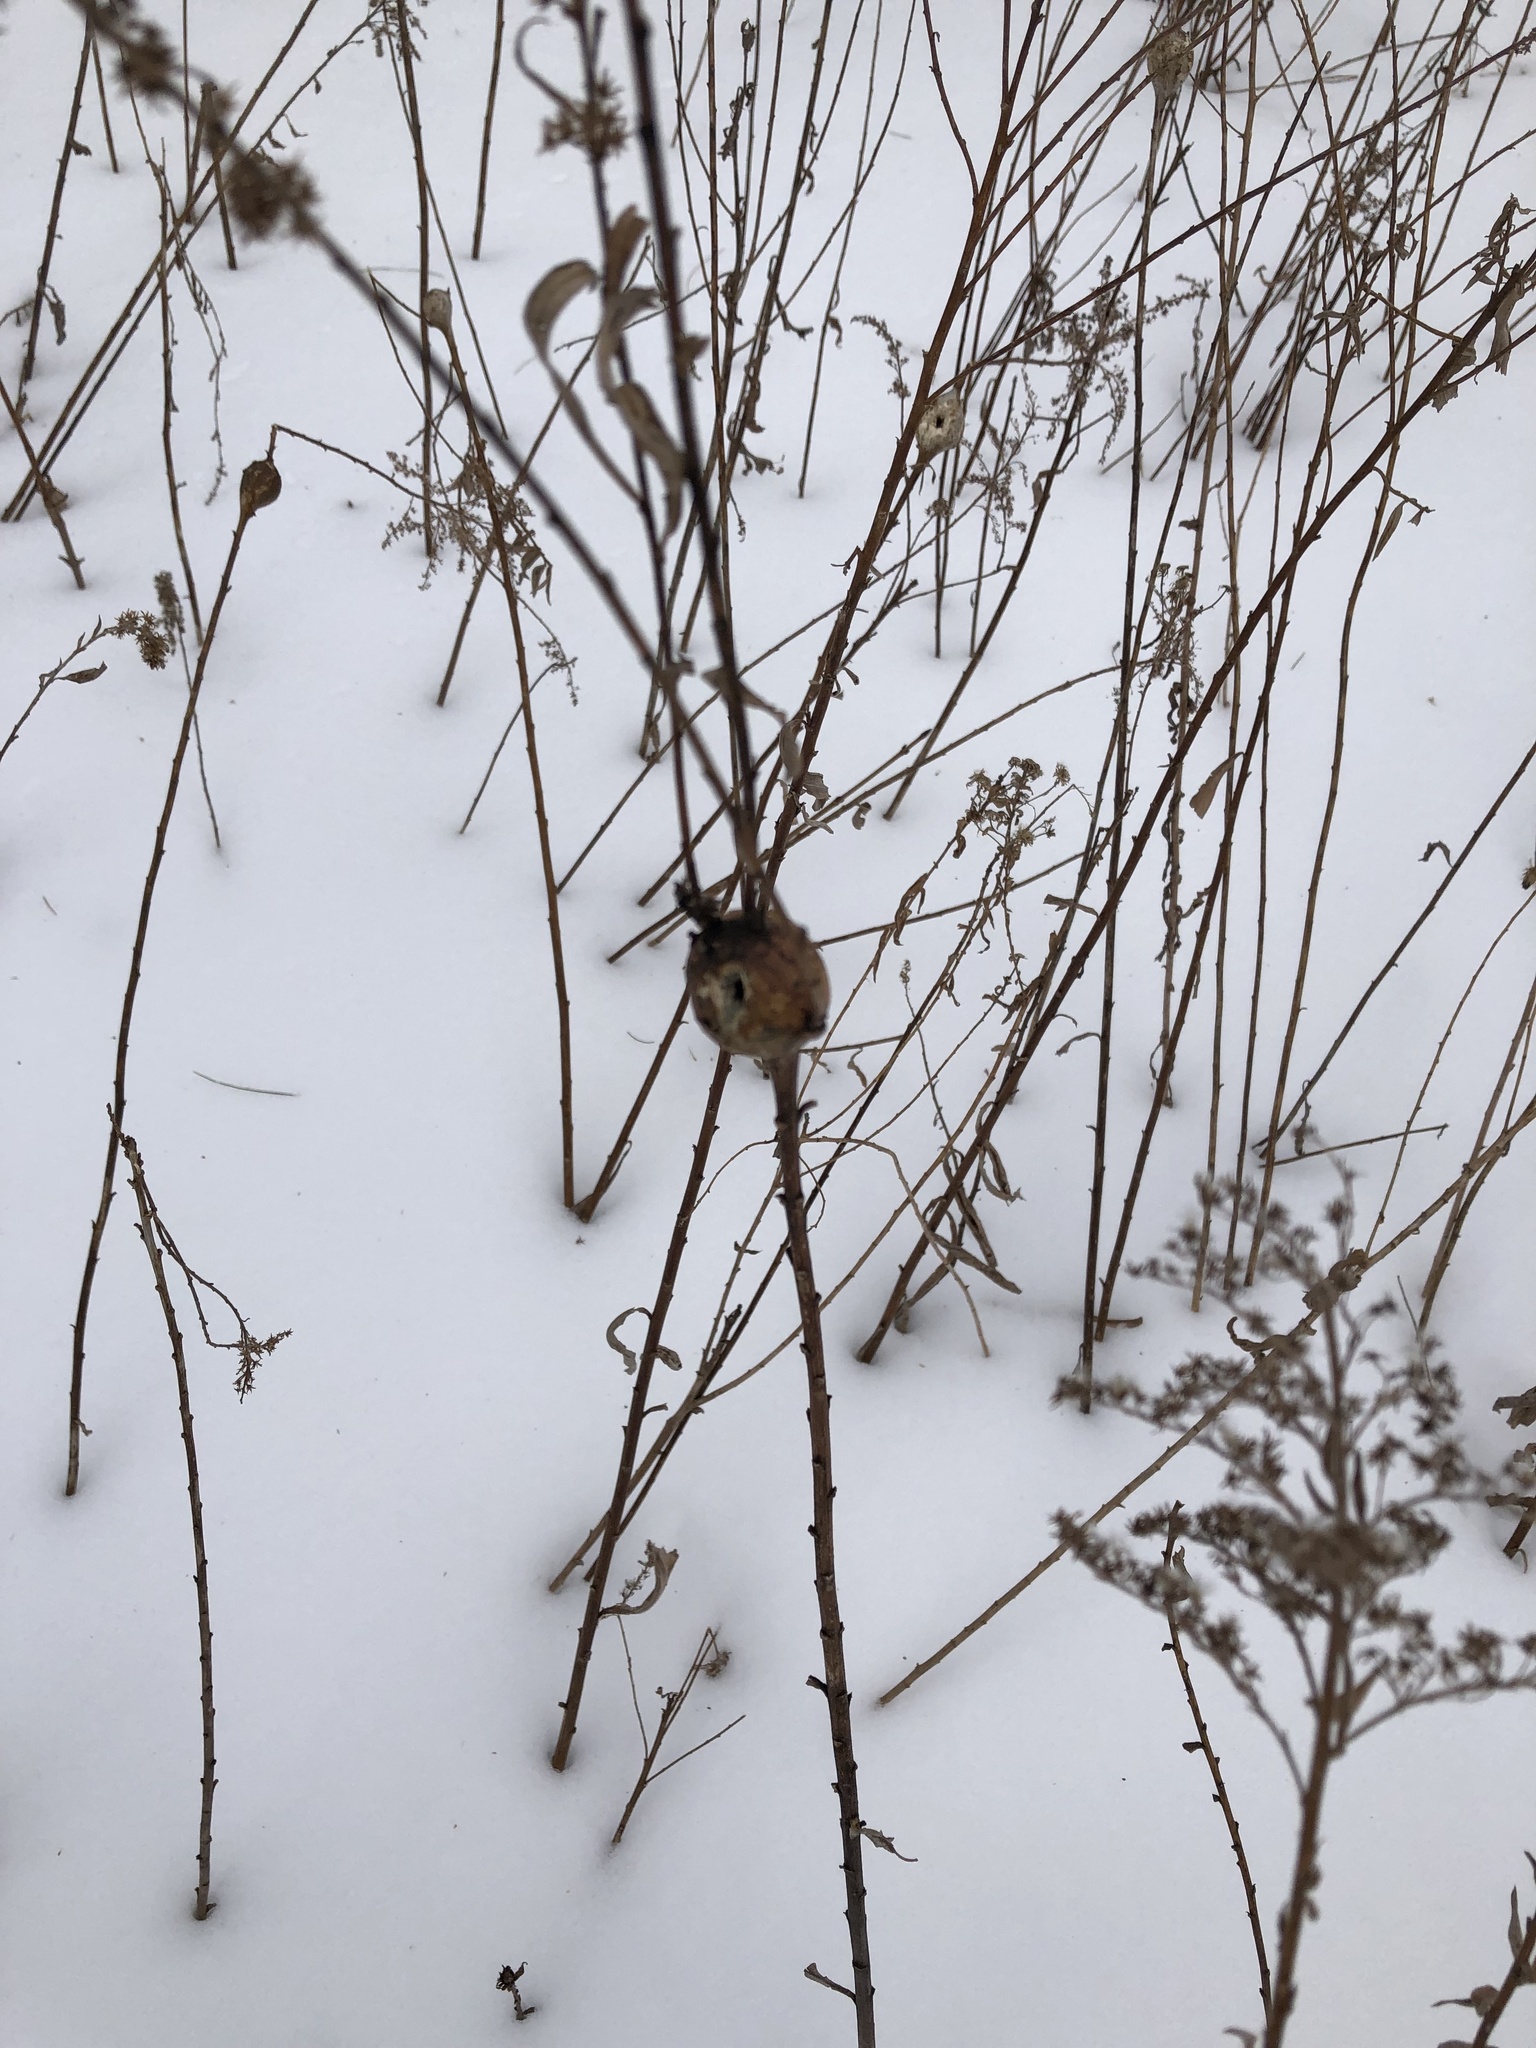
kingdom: Animalia
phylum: Arthropoda
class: Insecta
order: Diptera
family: Tephritidae
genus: Eurosta
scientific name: Eurosta solidaginis
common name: Goldenrod gall fly
